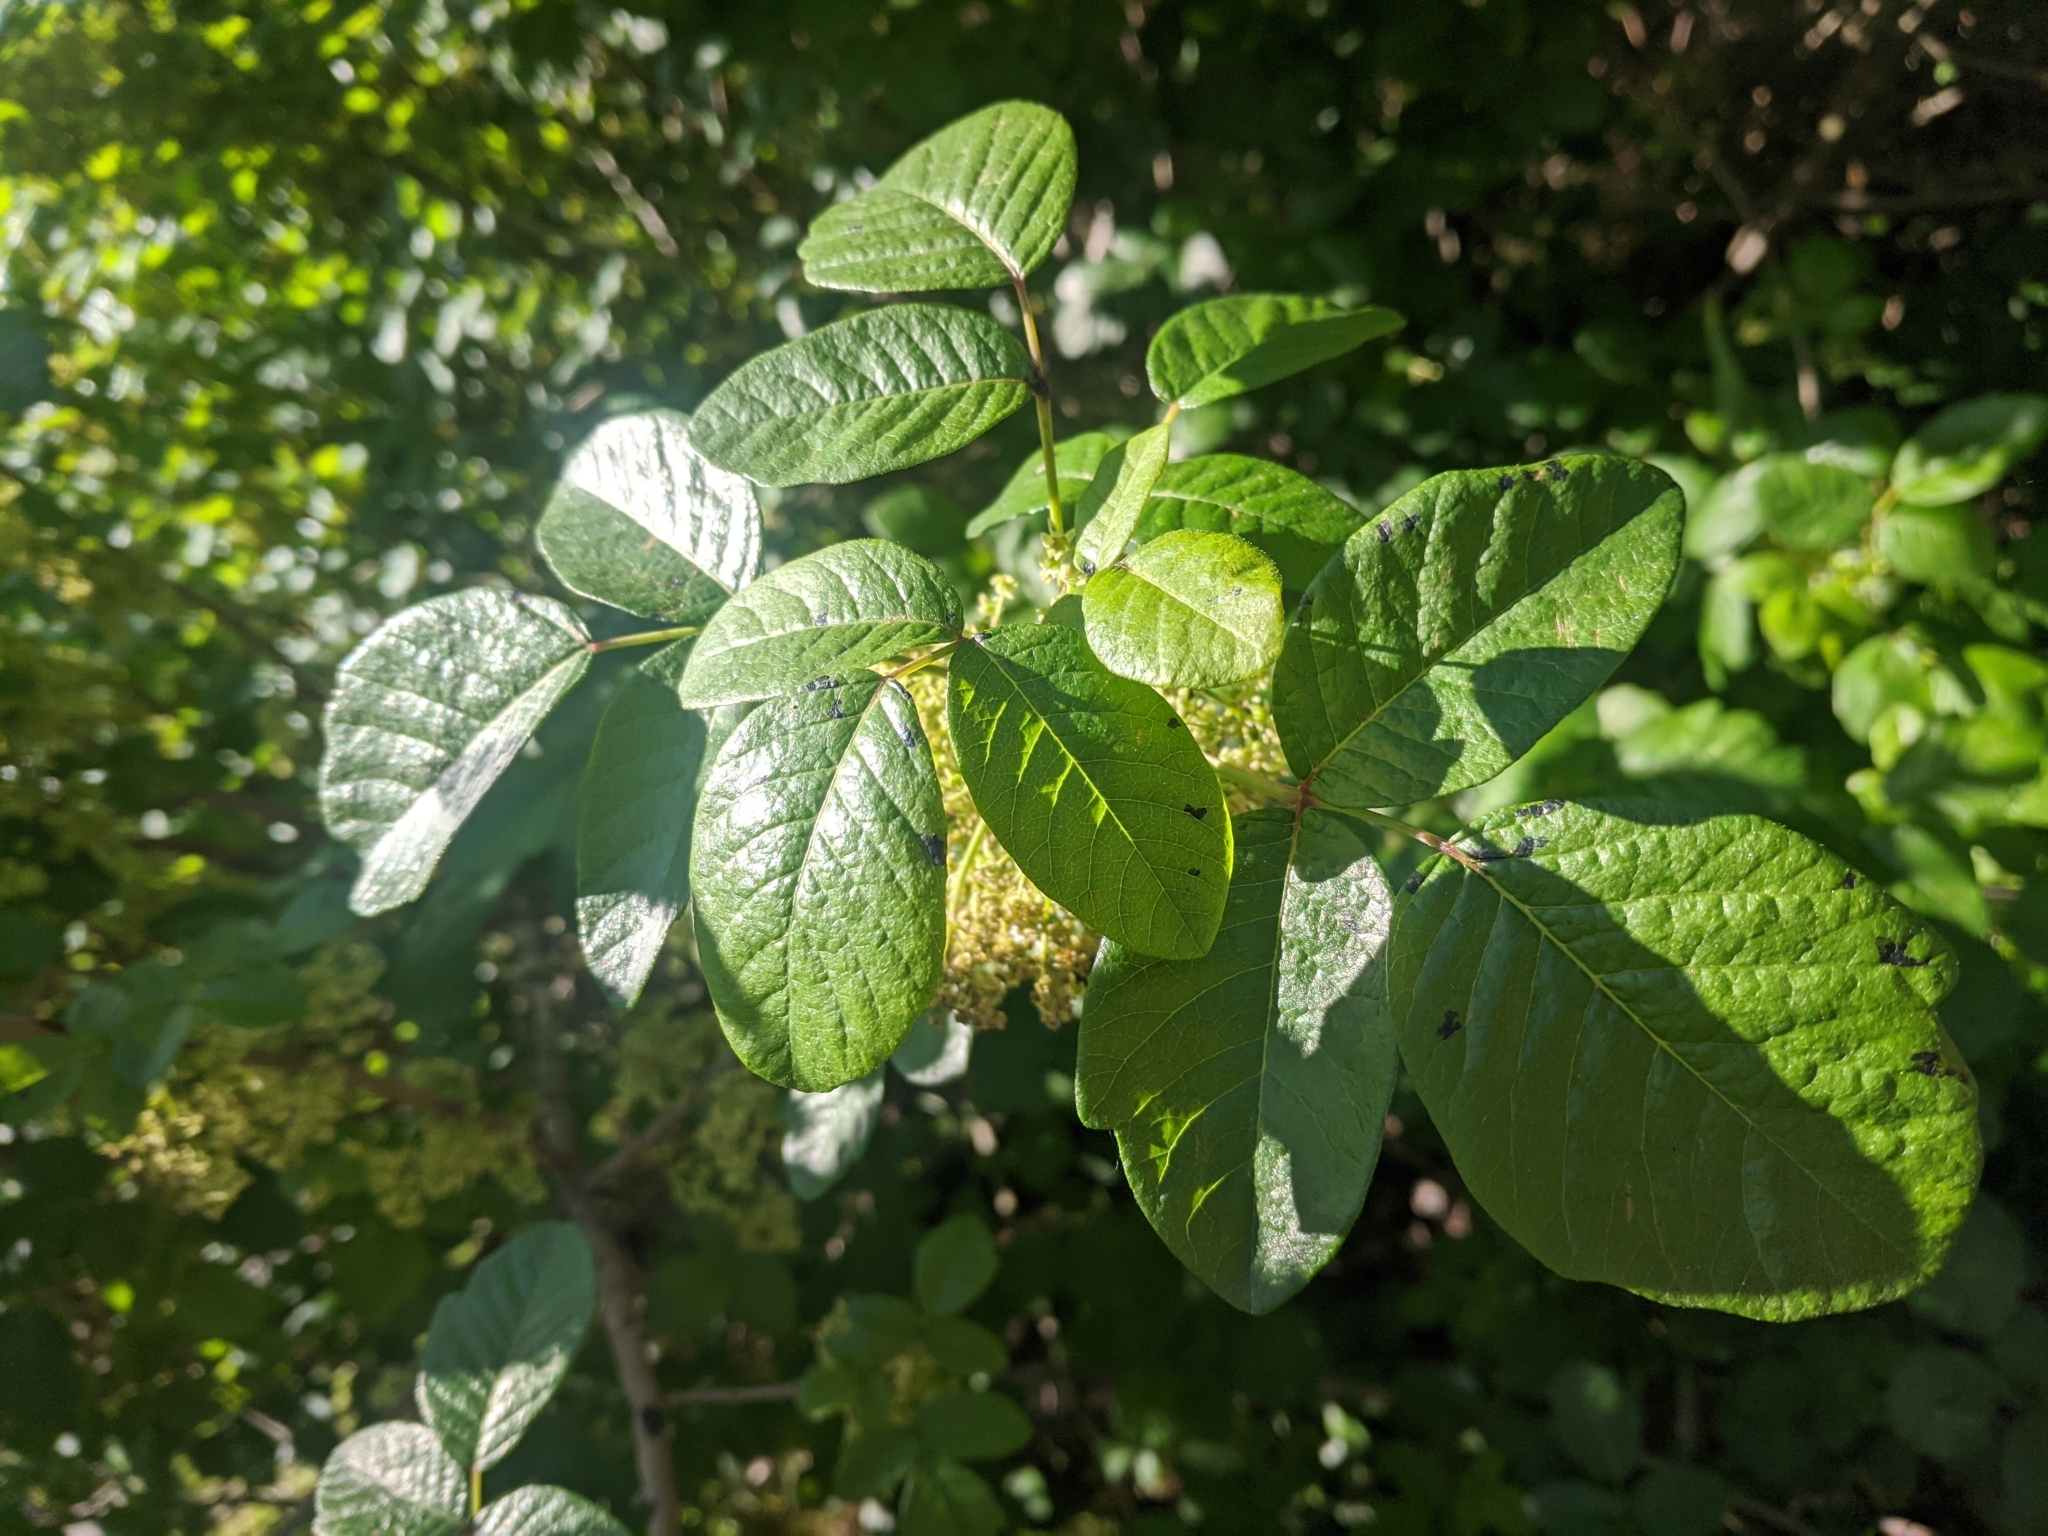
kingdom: Plantae
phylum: Tracheophyta
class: Magnoliopsida
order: Sapindales
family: Anacardiaceae
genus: Toxicodendron
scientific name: Toxicodendron diversilobum
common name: Pacific poison-oak
